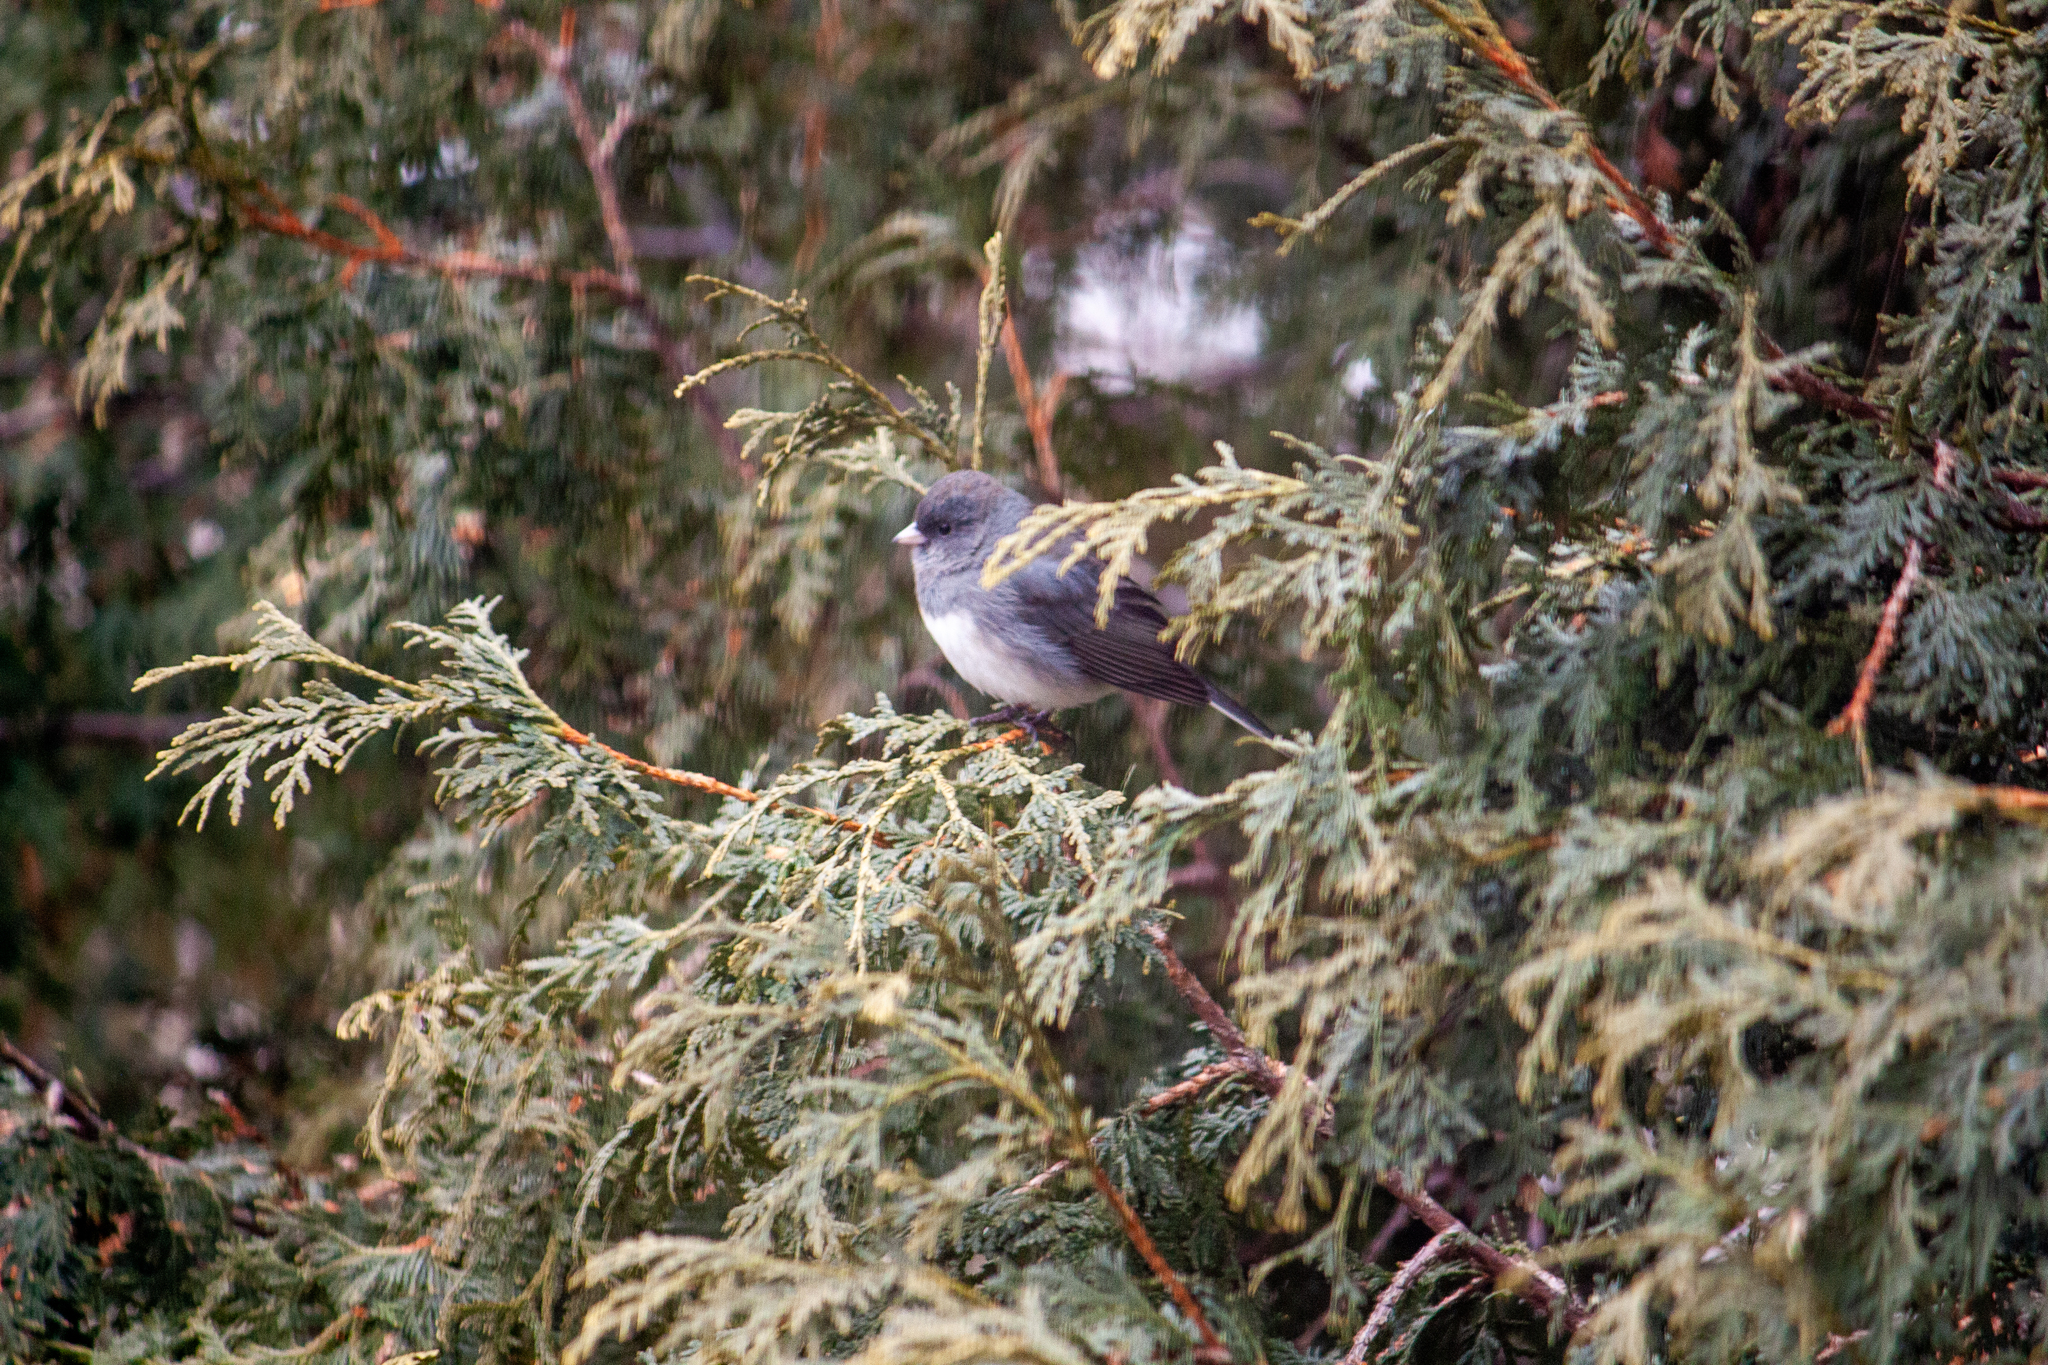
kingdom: Animalia
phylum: Chordata
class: Aves
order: Passeriformes
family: Passerellidae
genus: Junco
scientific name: Junco hyemalis
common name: Dark-eyed junco
